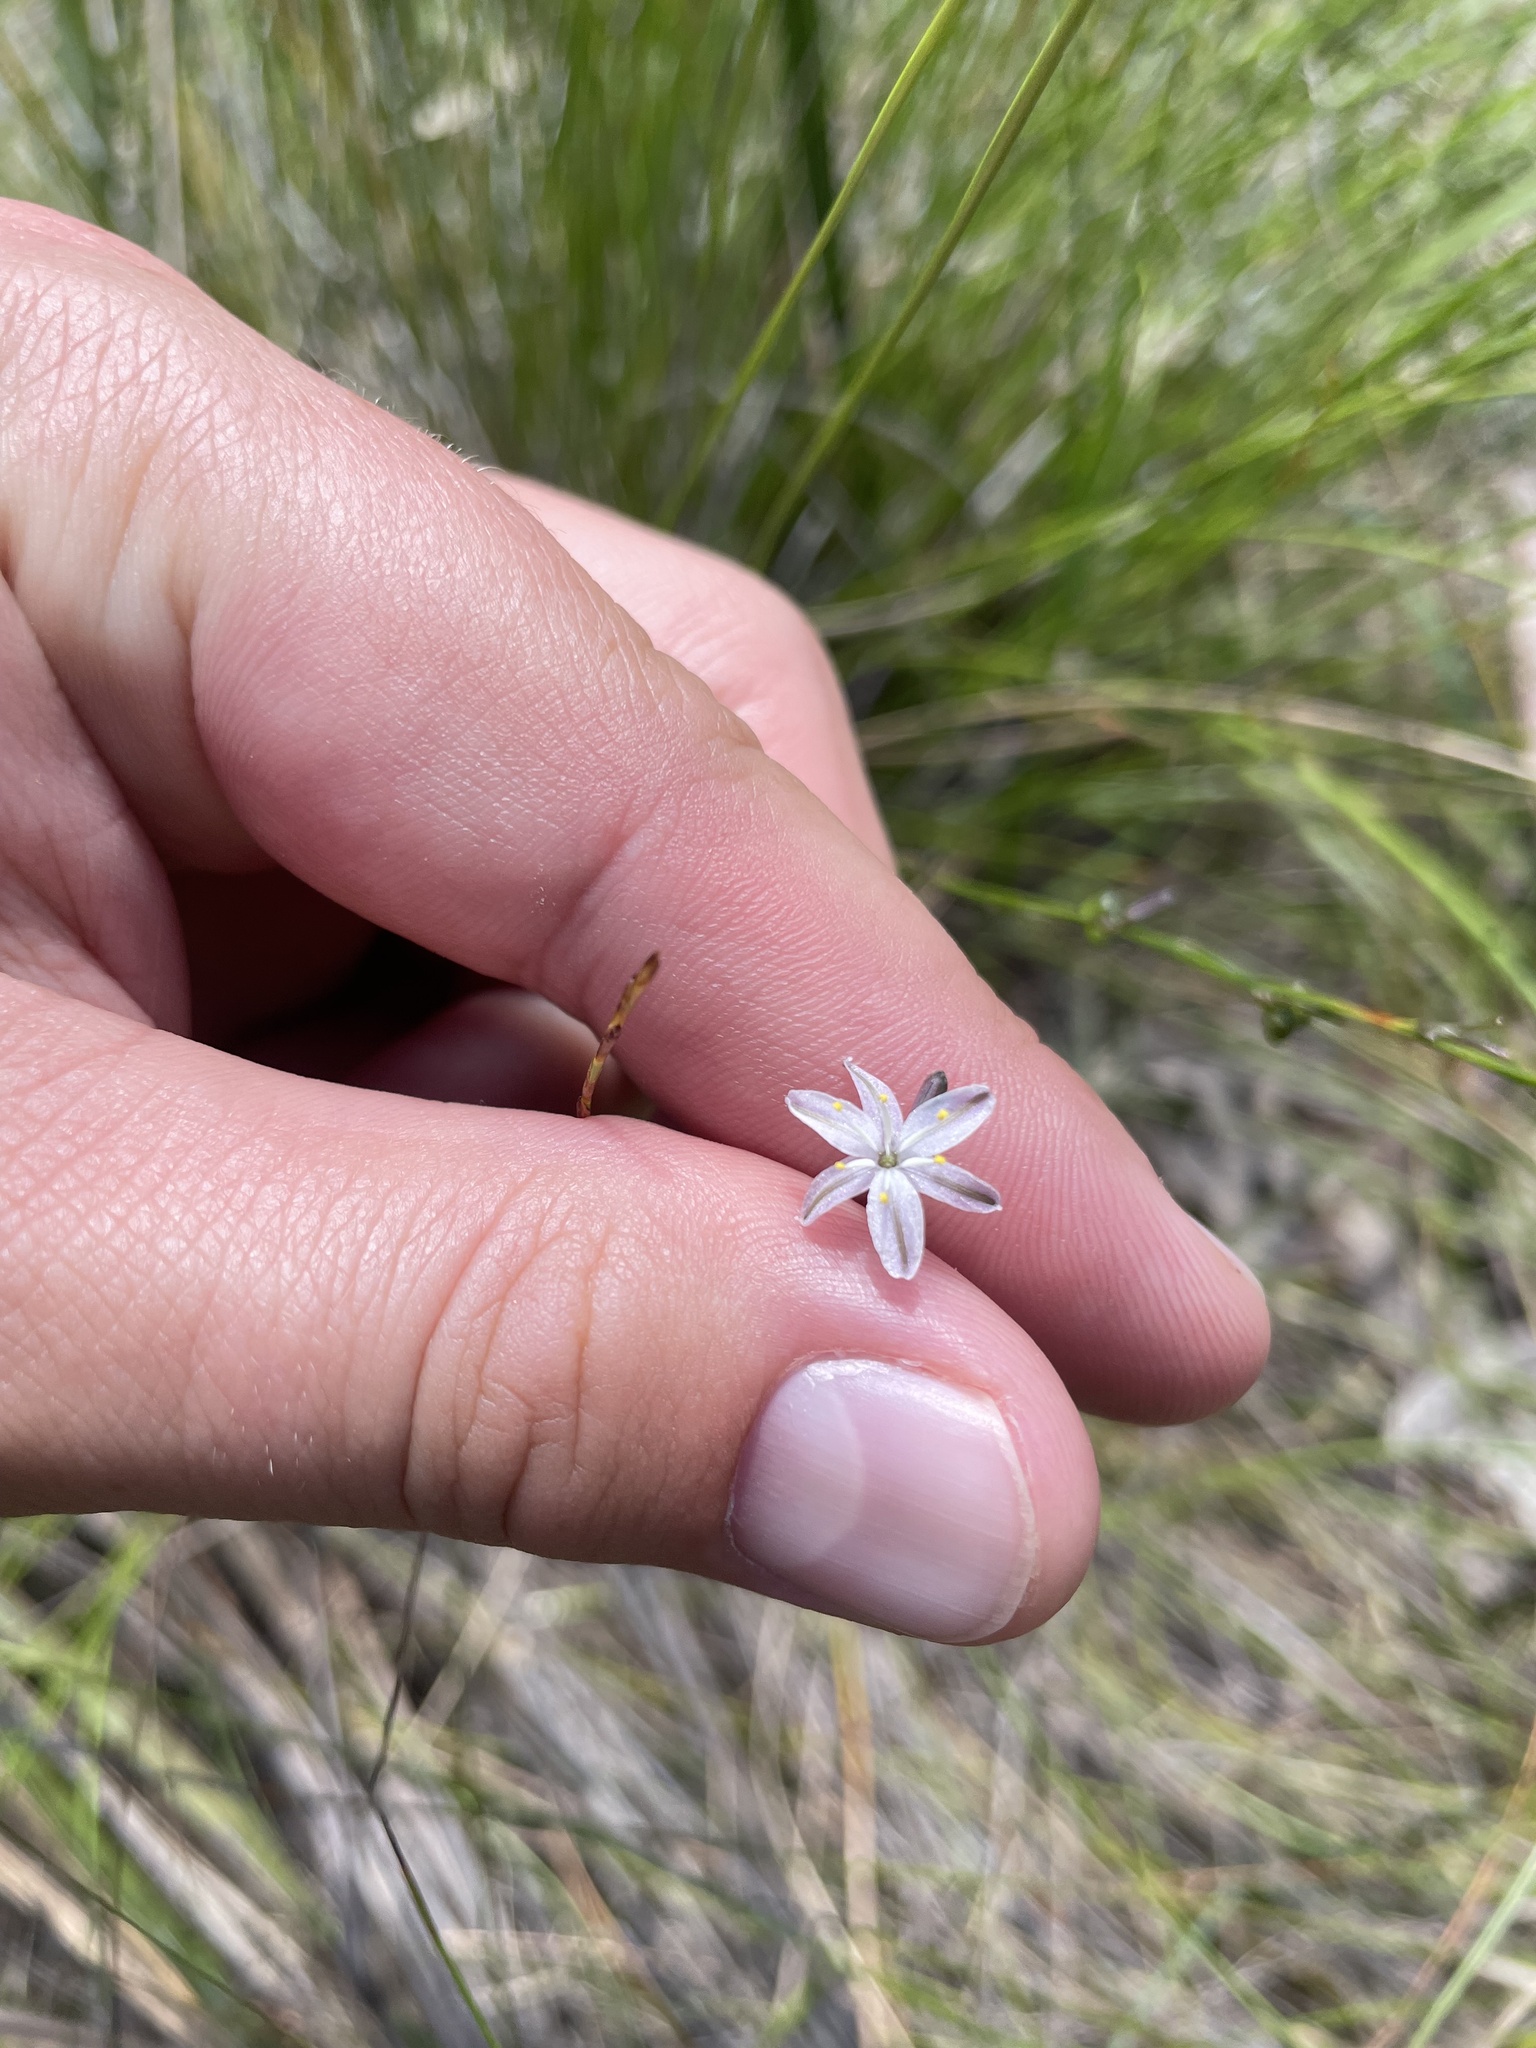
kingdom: Plantae
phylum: Tracheophyta
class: Liliopsida
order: Asparagales
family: Asphodelaceae
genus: Caesia
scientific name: Caesia parviflora
